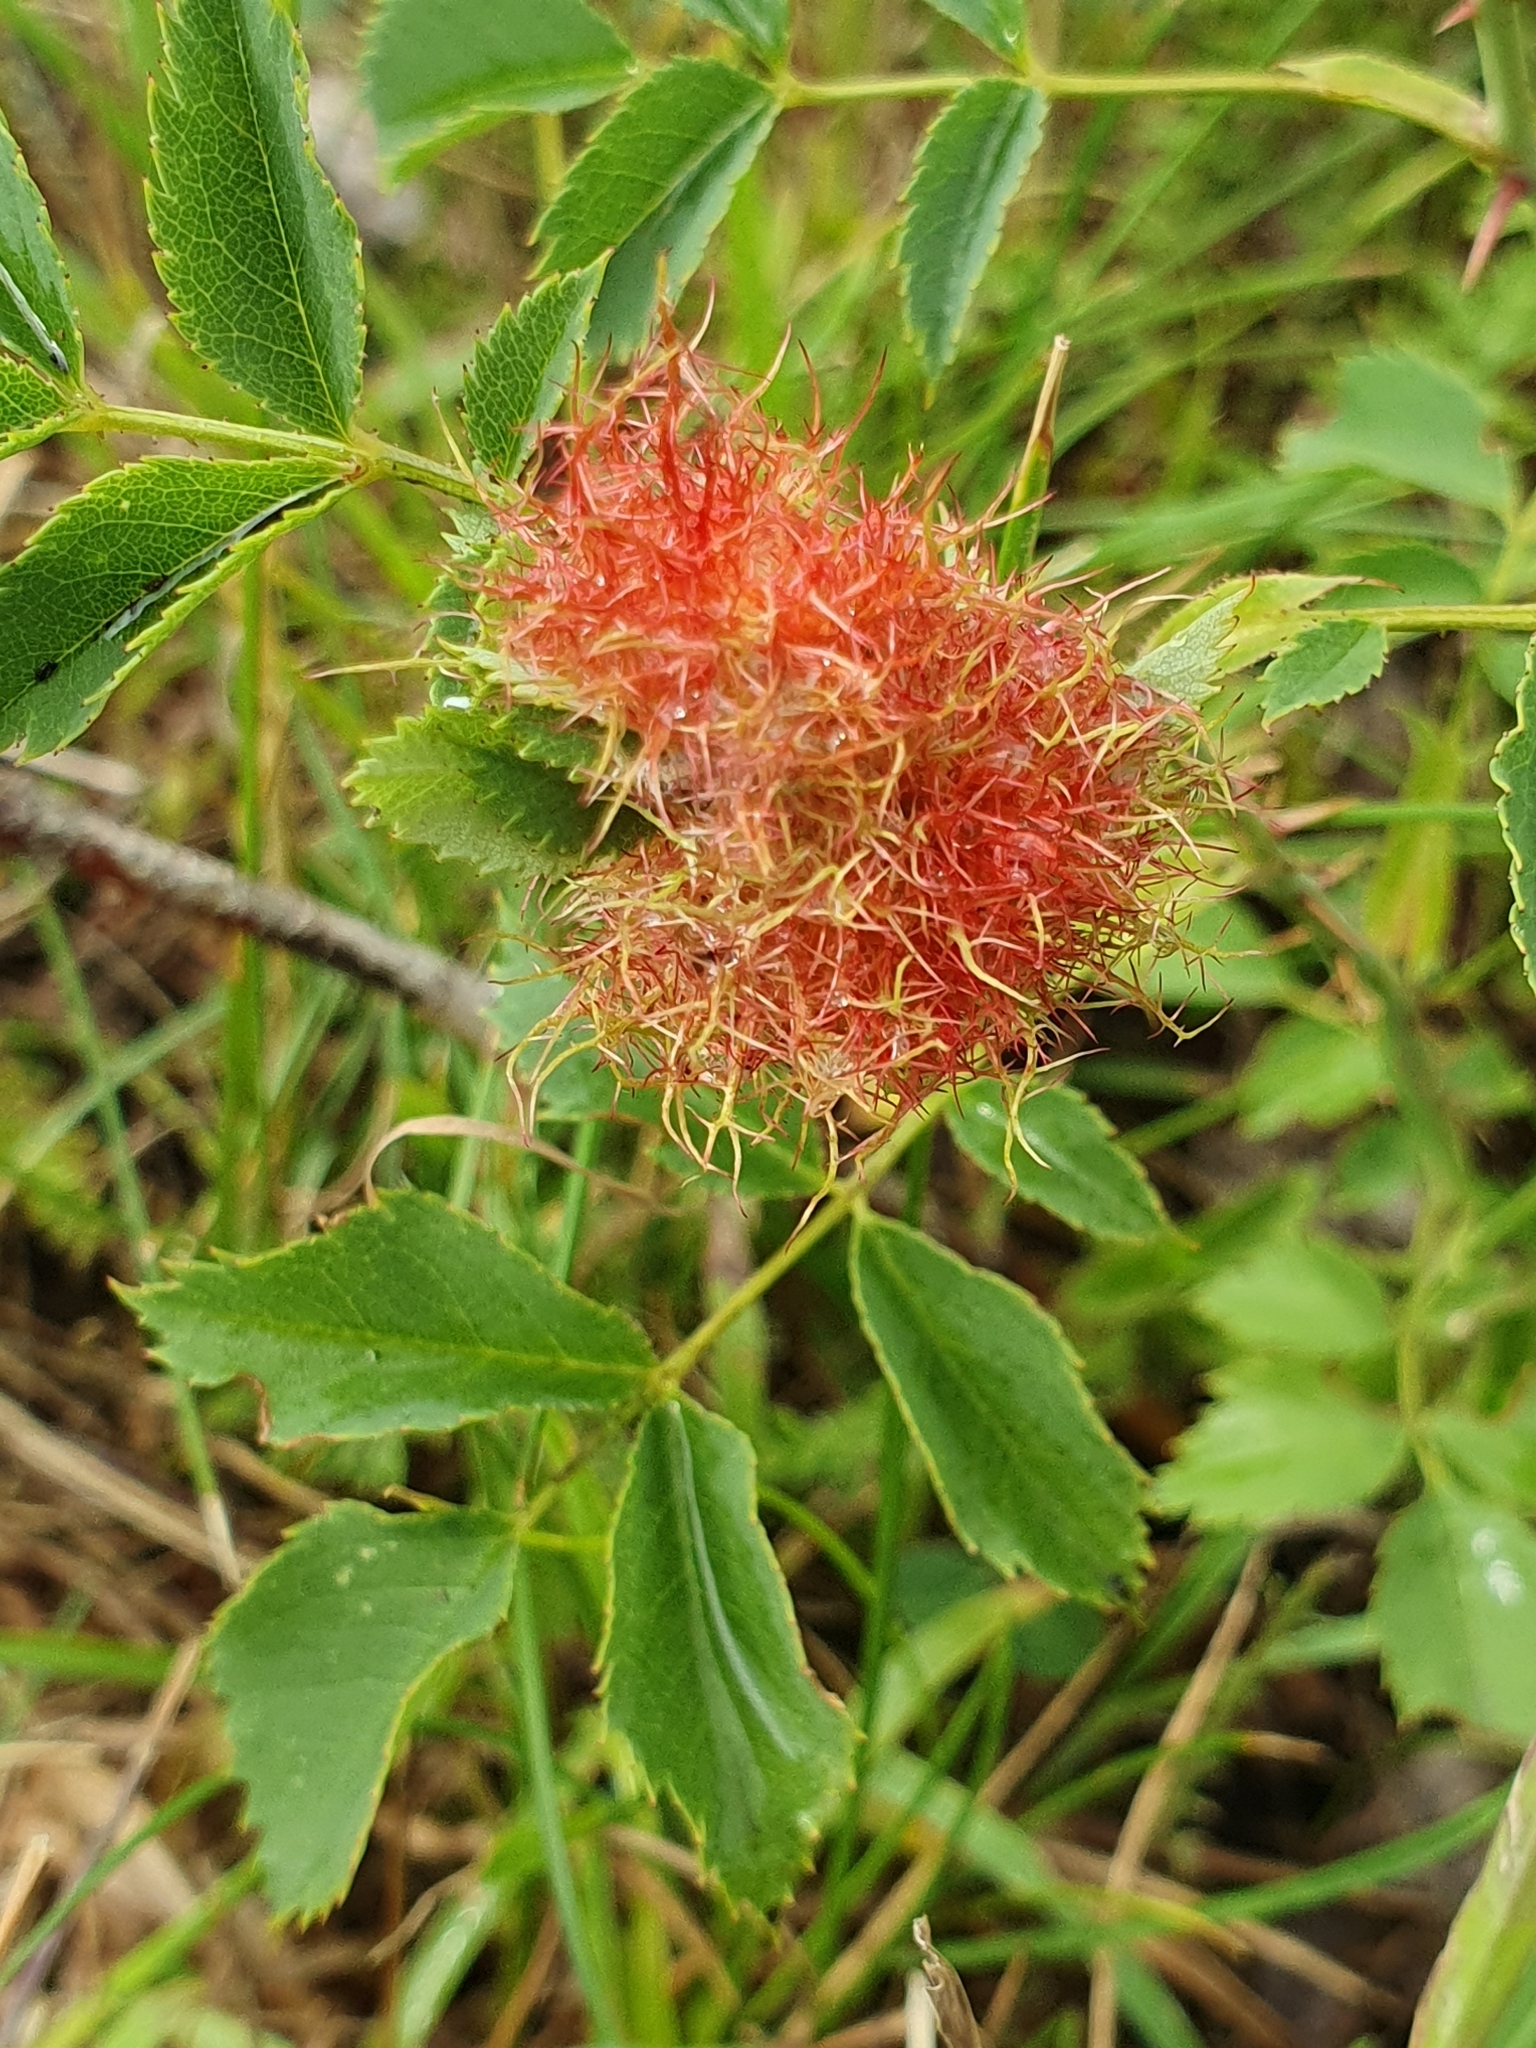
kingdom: Animalia
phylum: Arthropoda
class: Insecta
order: Hymenoptera
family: Cynipidae
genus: Diplolepis
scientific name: Diplolepis rosae
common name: Bedeguar gall
